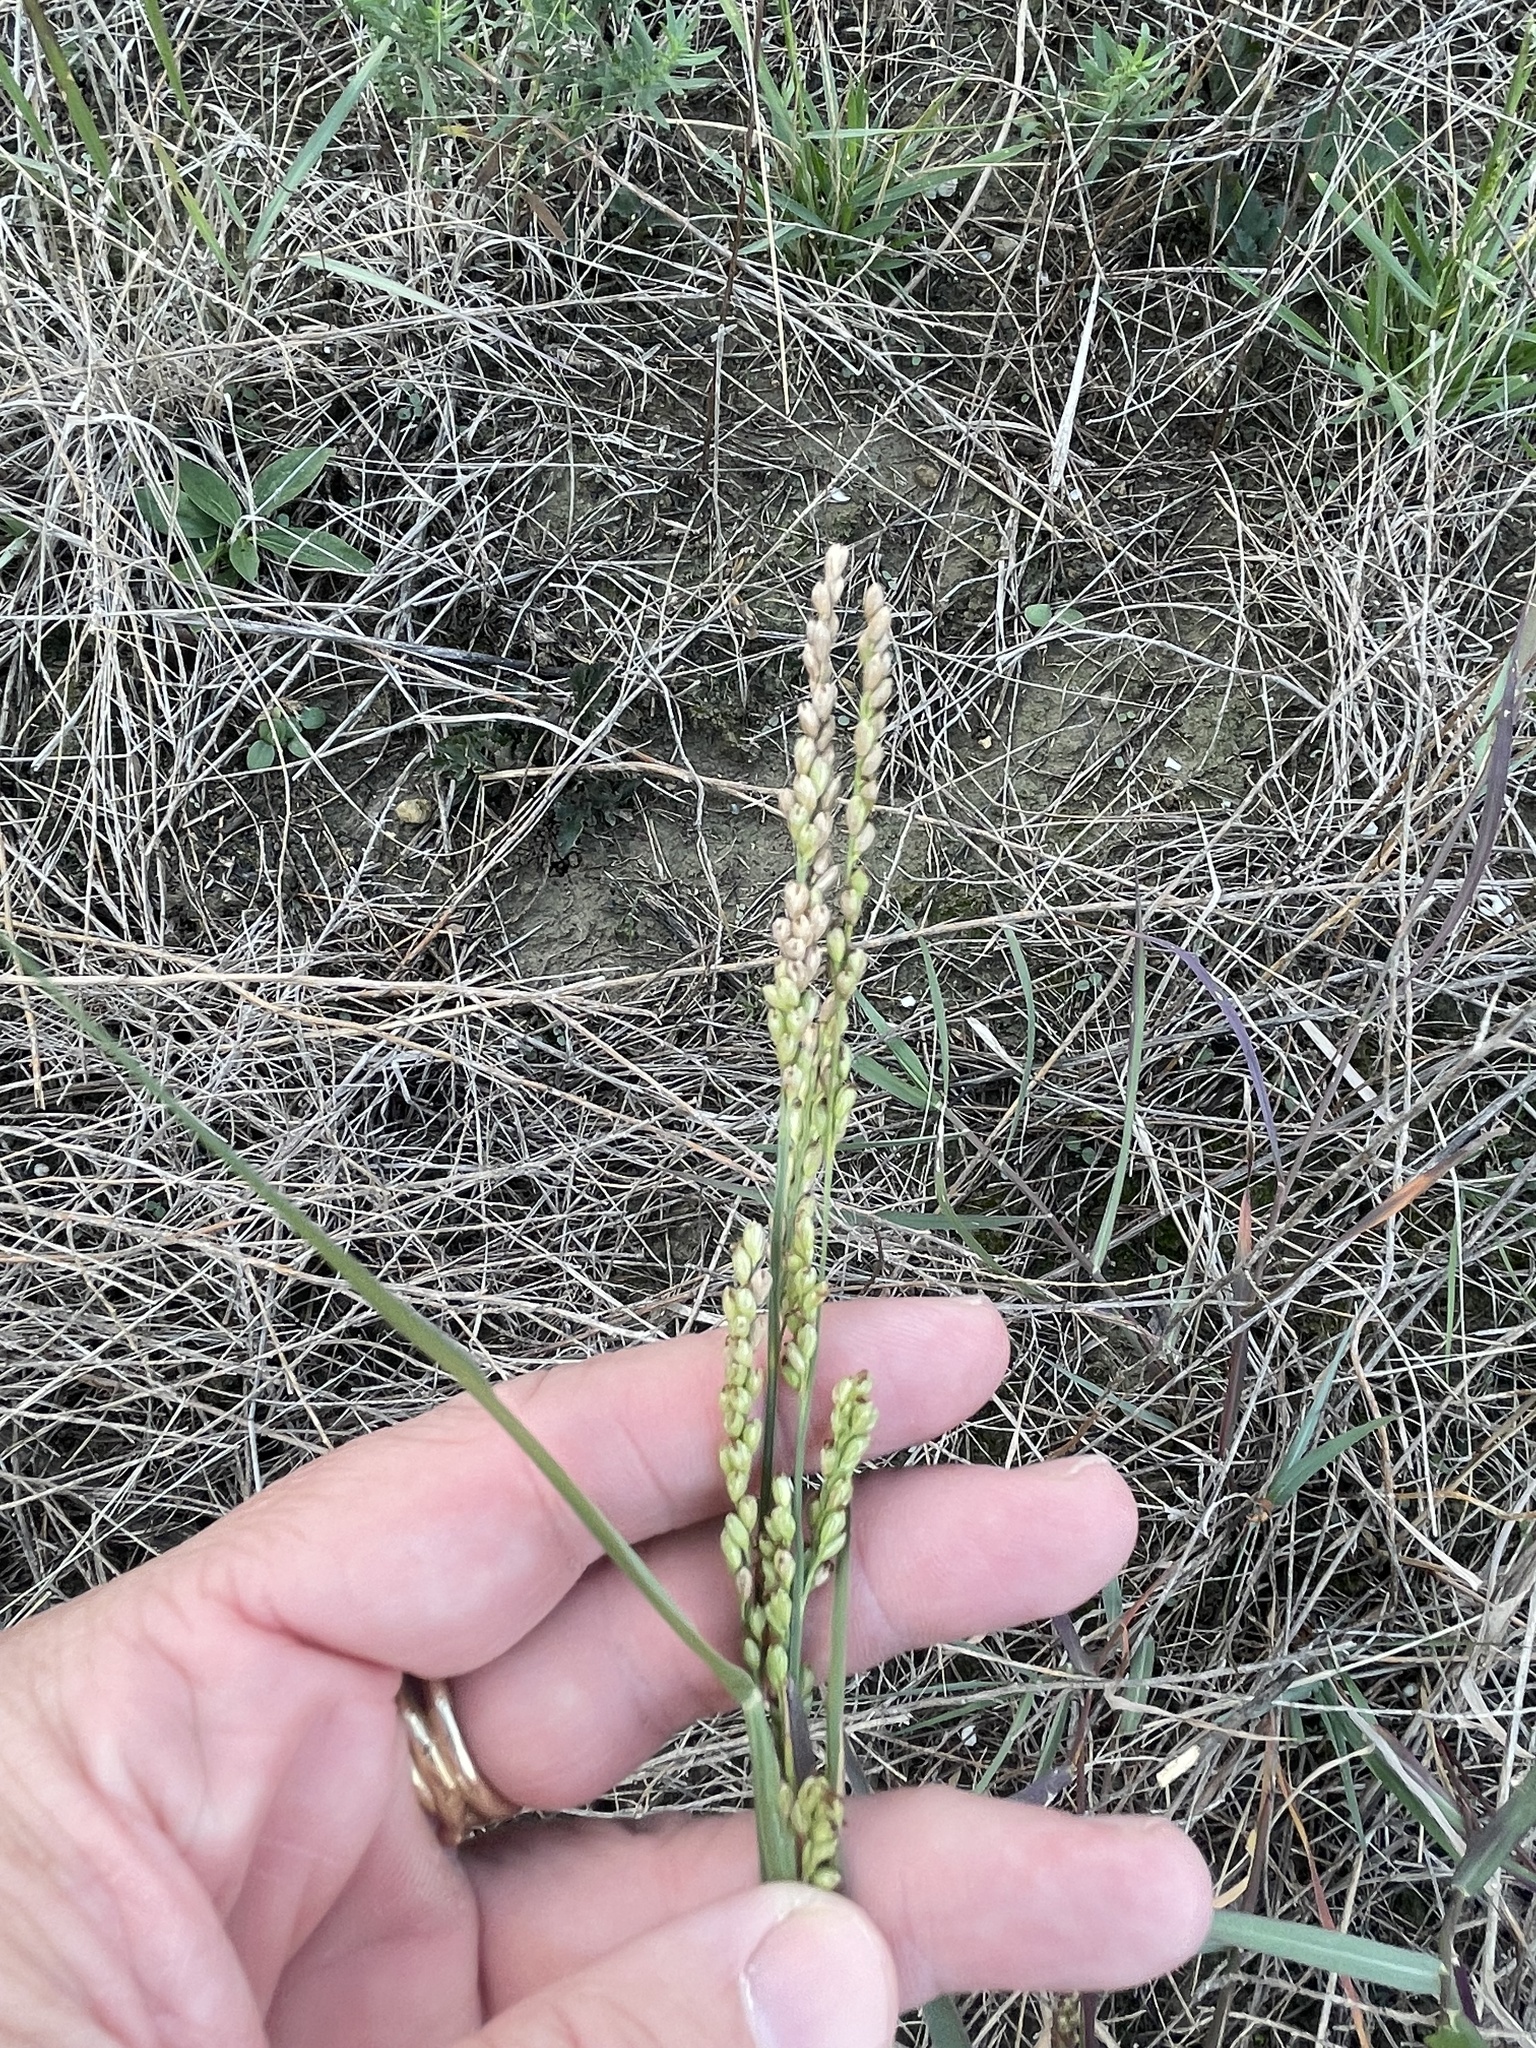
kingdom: Plantae
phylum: Tracheophyta
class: Liliopsida
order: Poales
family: Poaceae
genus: Hopia
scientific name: Hopia obtusa
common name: Vine-mesquite
